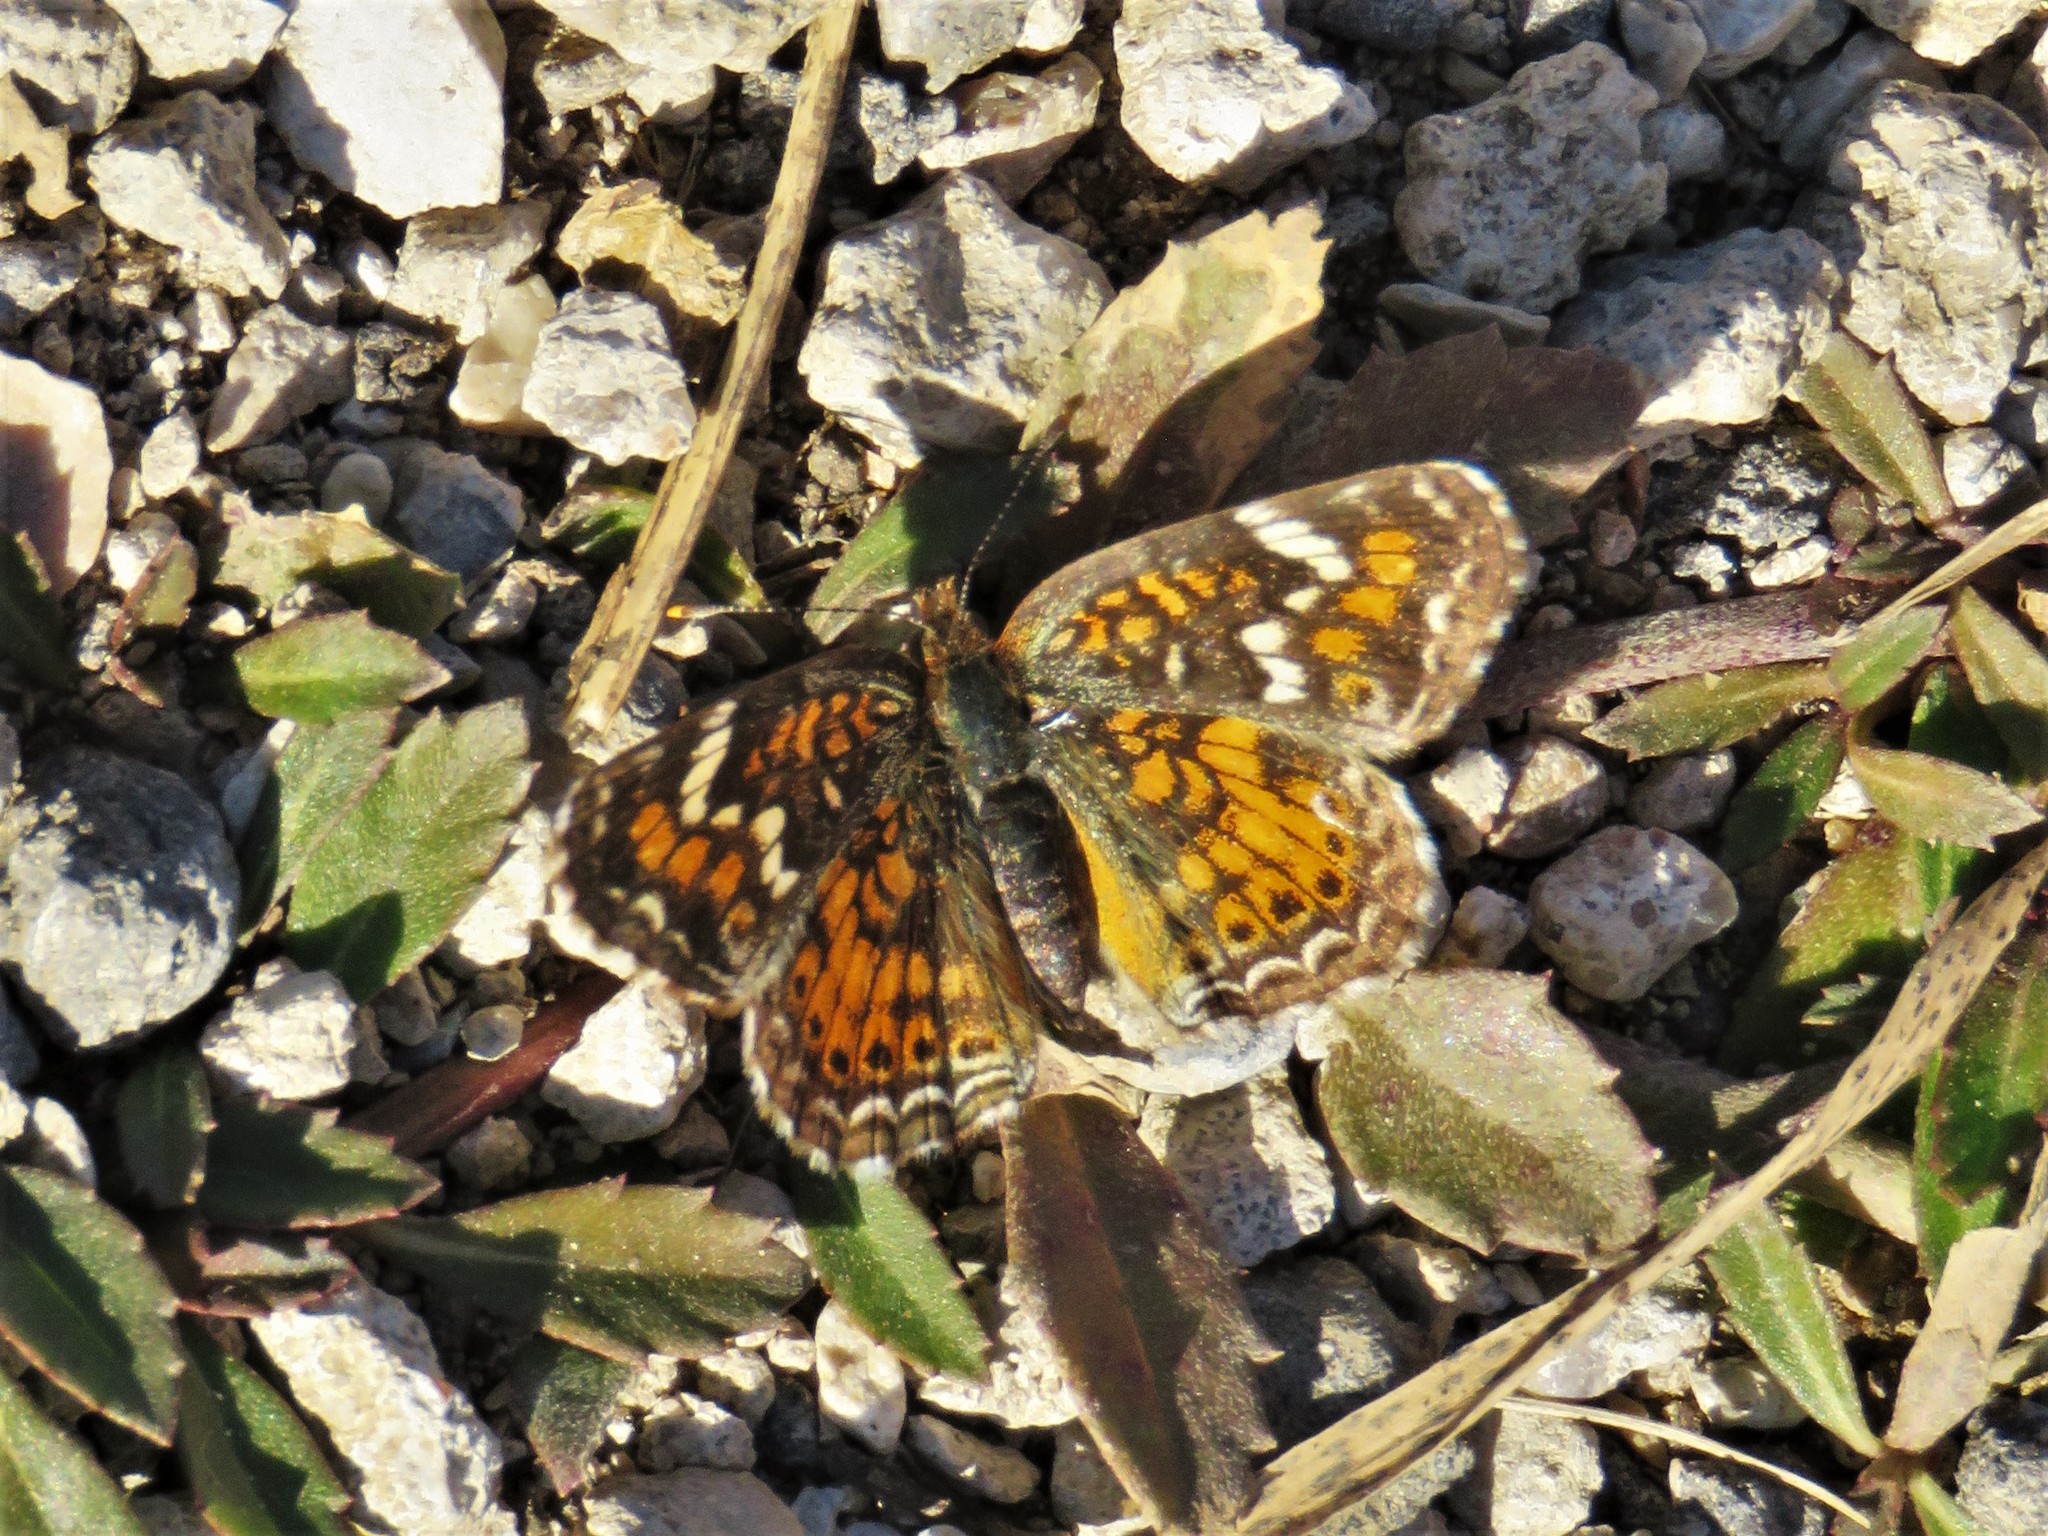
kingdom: Animalia
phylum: Arthropoda
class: Insecta
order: Lepidoptera
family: Nymphalidae
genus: Phyciodes
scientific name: Phyciodes phaon
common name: Phaon crescent
